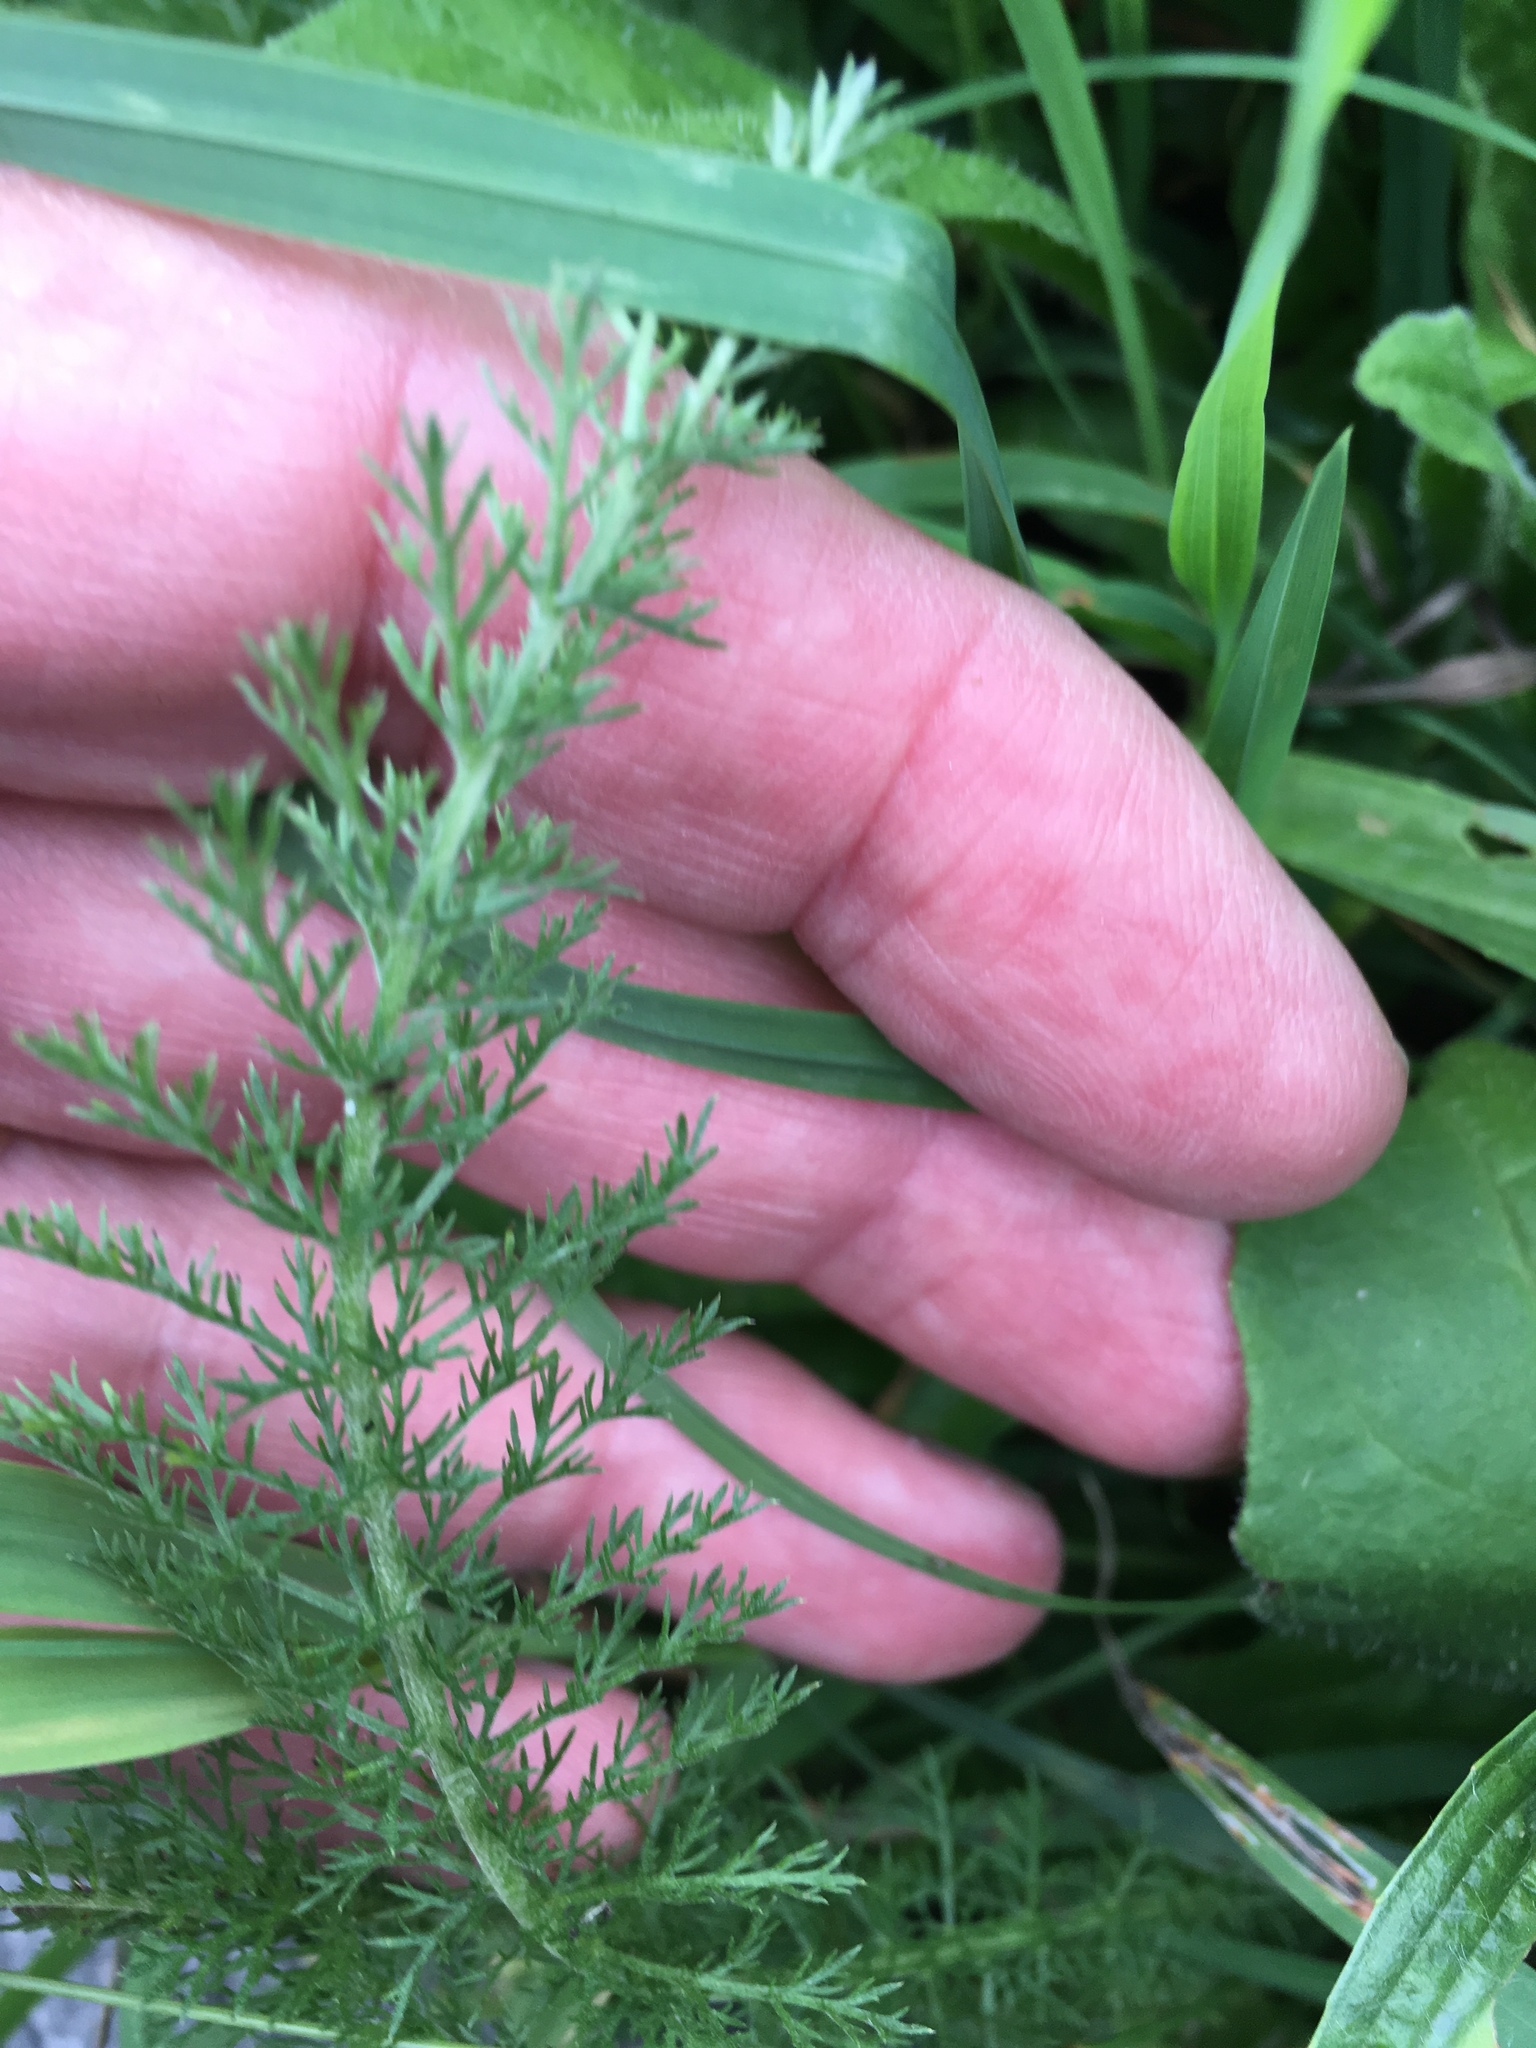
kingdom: Plantae
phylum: Tracheophyta
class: Magnoliopsida
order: Asterales
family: Asteraceae
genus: Achillea
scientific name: Achillea millefolium
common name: Yarrow
